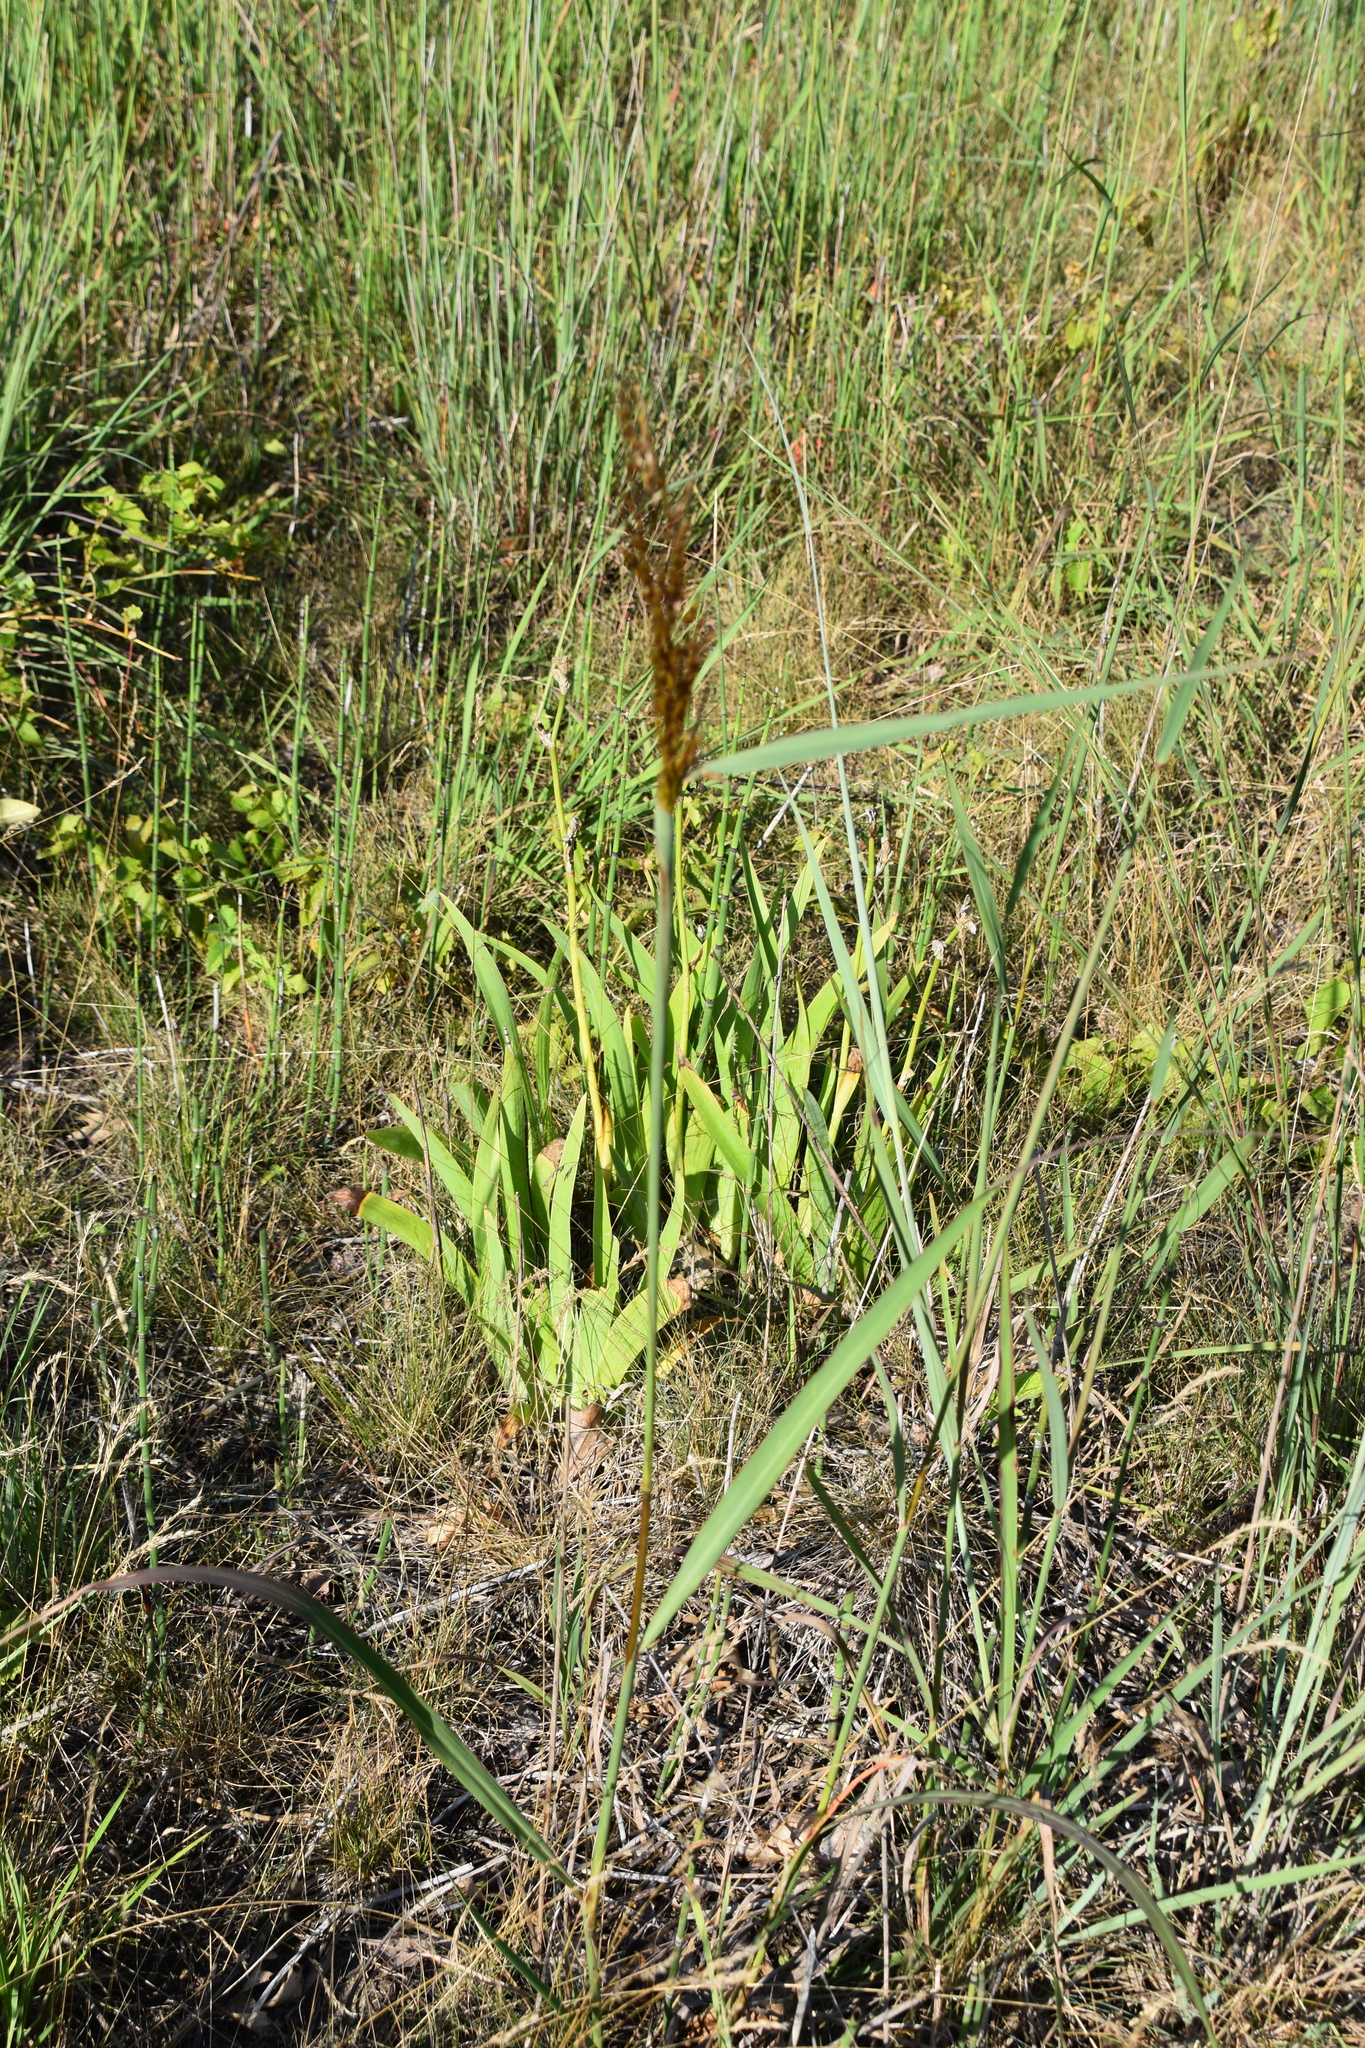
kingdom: Plantae
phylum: Tracheophyta
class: Liliopsida
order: Poales
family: Poaceae
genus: Sorghastrum
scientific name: Sorghastrum nutans
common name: Indian grass
